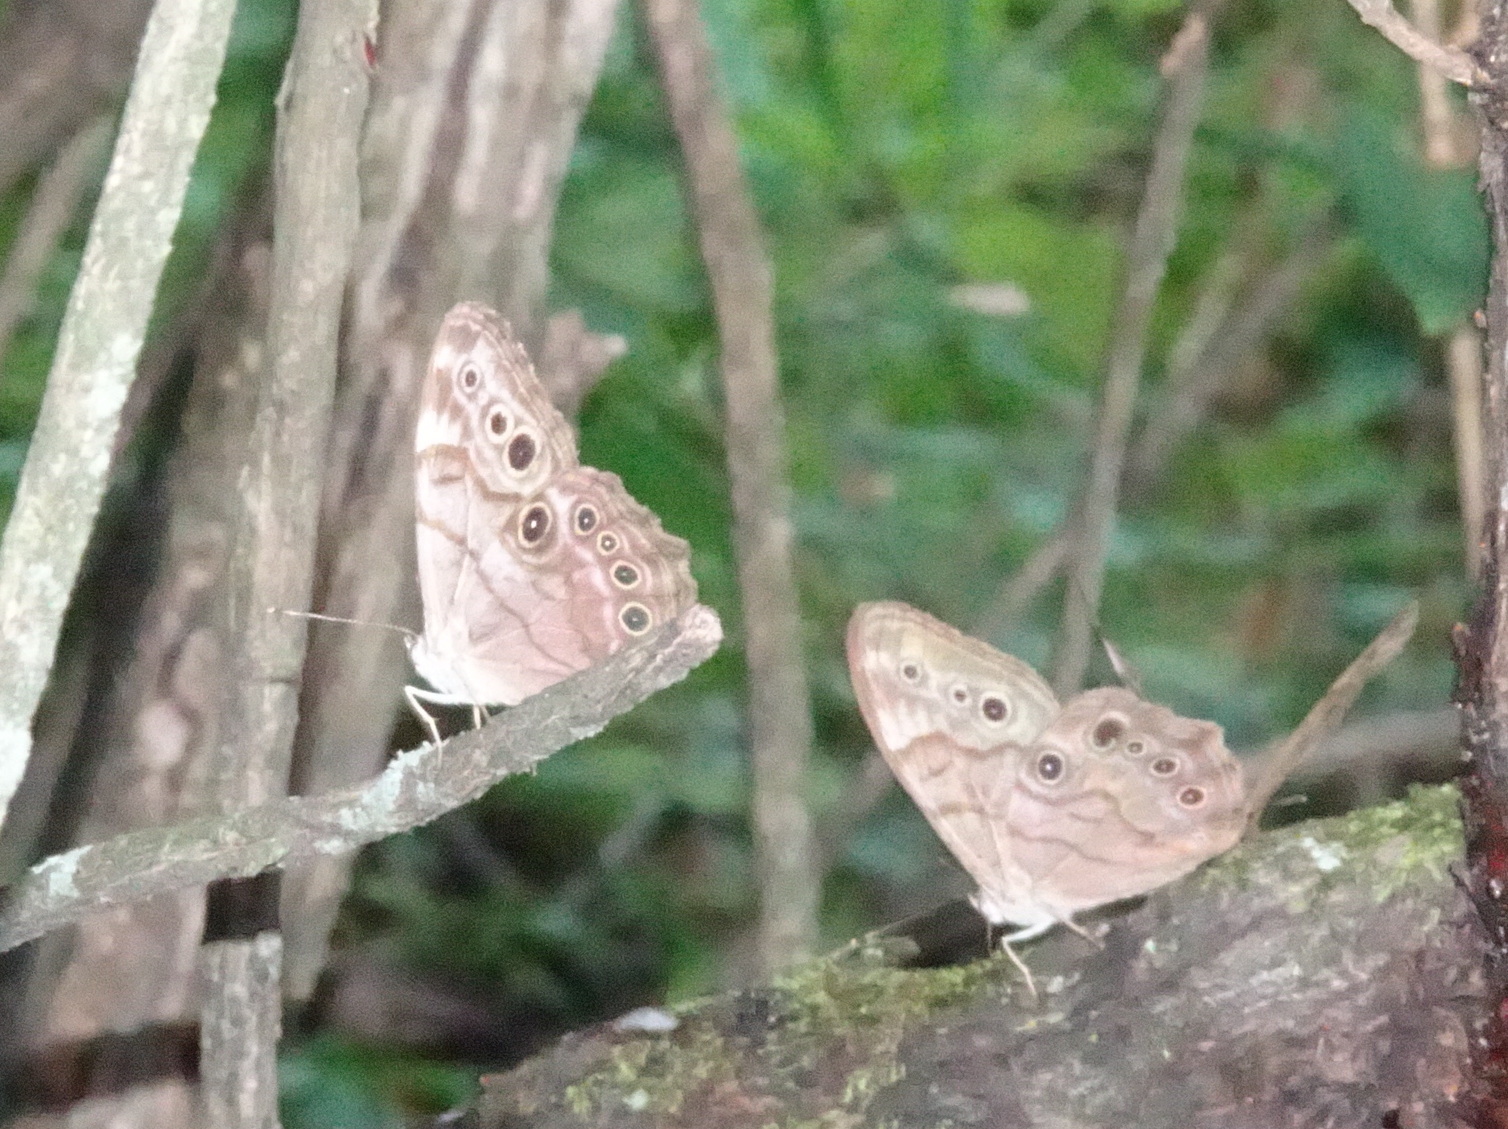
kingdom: Animalia
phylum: Arthropoda
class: Insecta
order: Lepidoptera
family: Nymphalidae
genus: Lethe
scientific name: Lethe anthedon
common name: Northern pearly-eye
